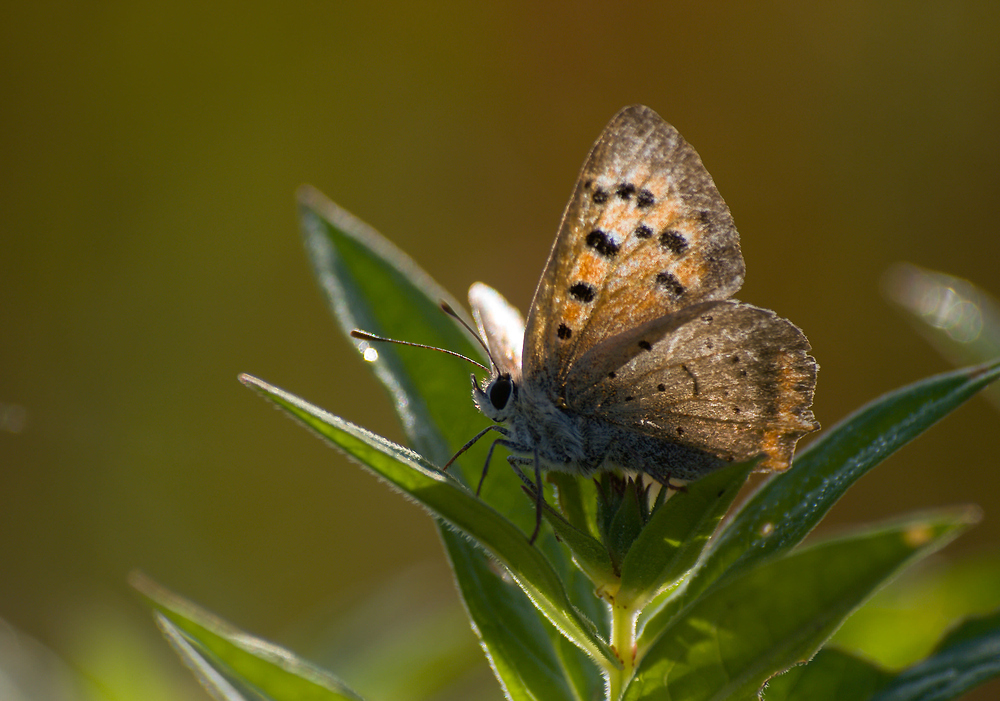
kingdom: Animalia
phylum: Arthropoda
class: Insecta
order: Lepidoptera
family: Lycaenidae
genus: Lycaena
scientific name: Lycaena phlaeas
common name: Small copper
